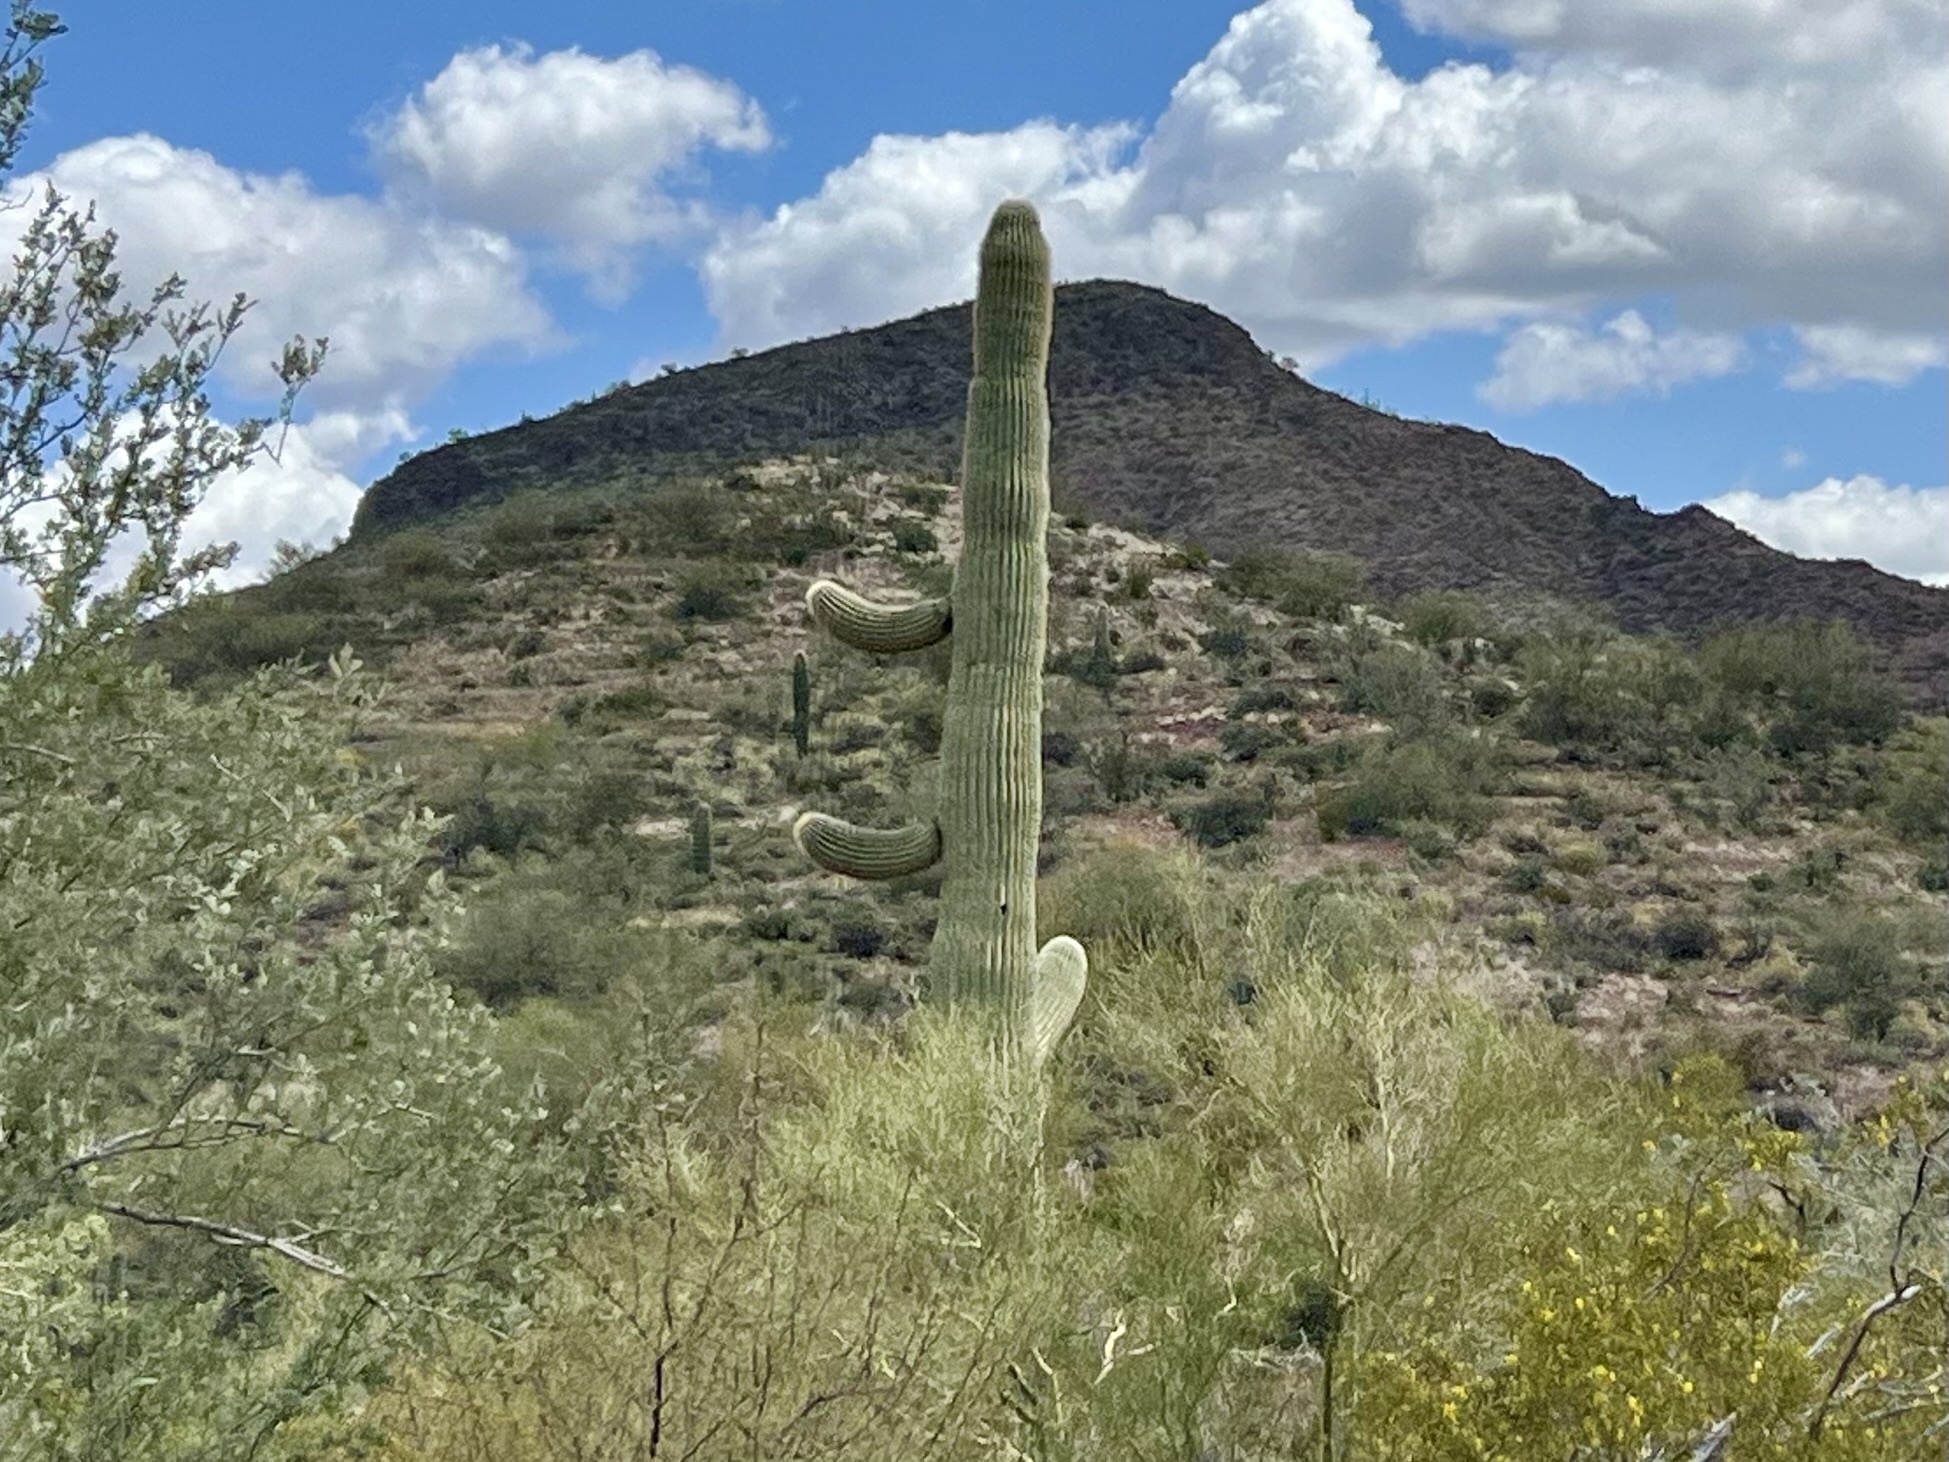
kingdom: Plantae
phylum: Tracheophyta
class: Magnoliopsida
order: Caryophyllales
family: Cactaceae
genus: Carnegiea
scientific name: Carnegiea gigantea
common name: Saguaro
